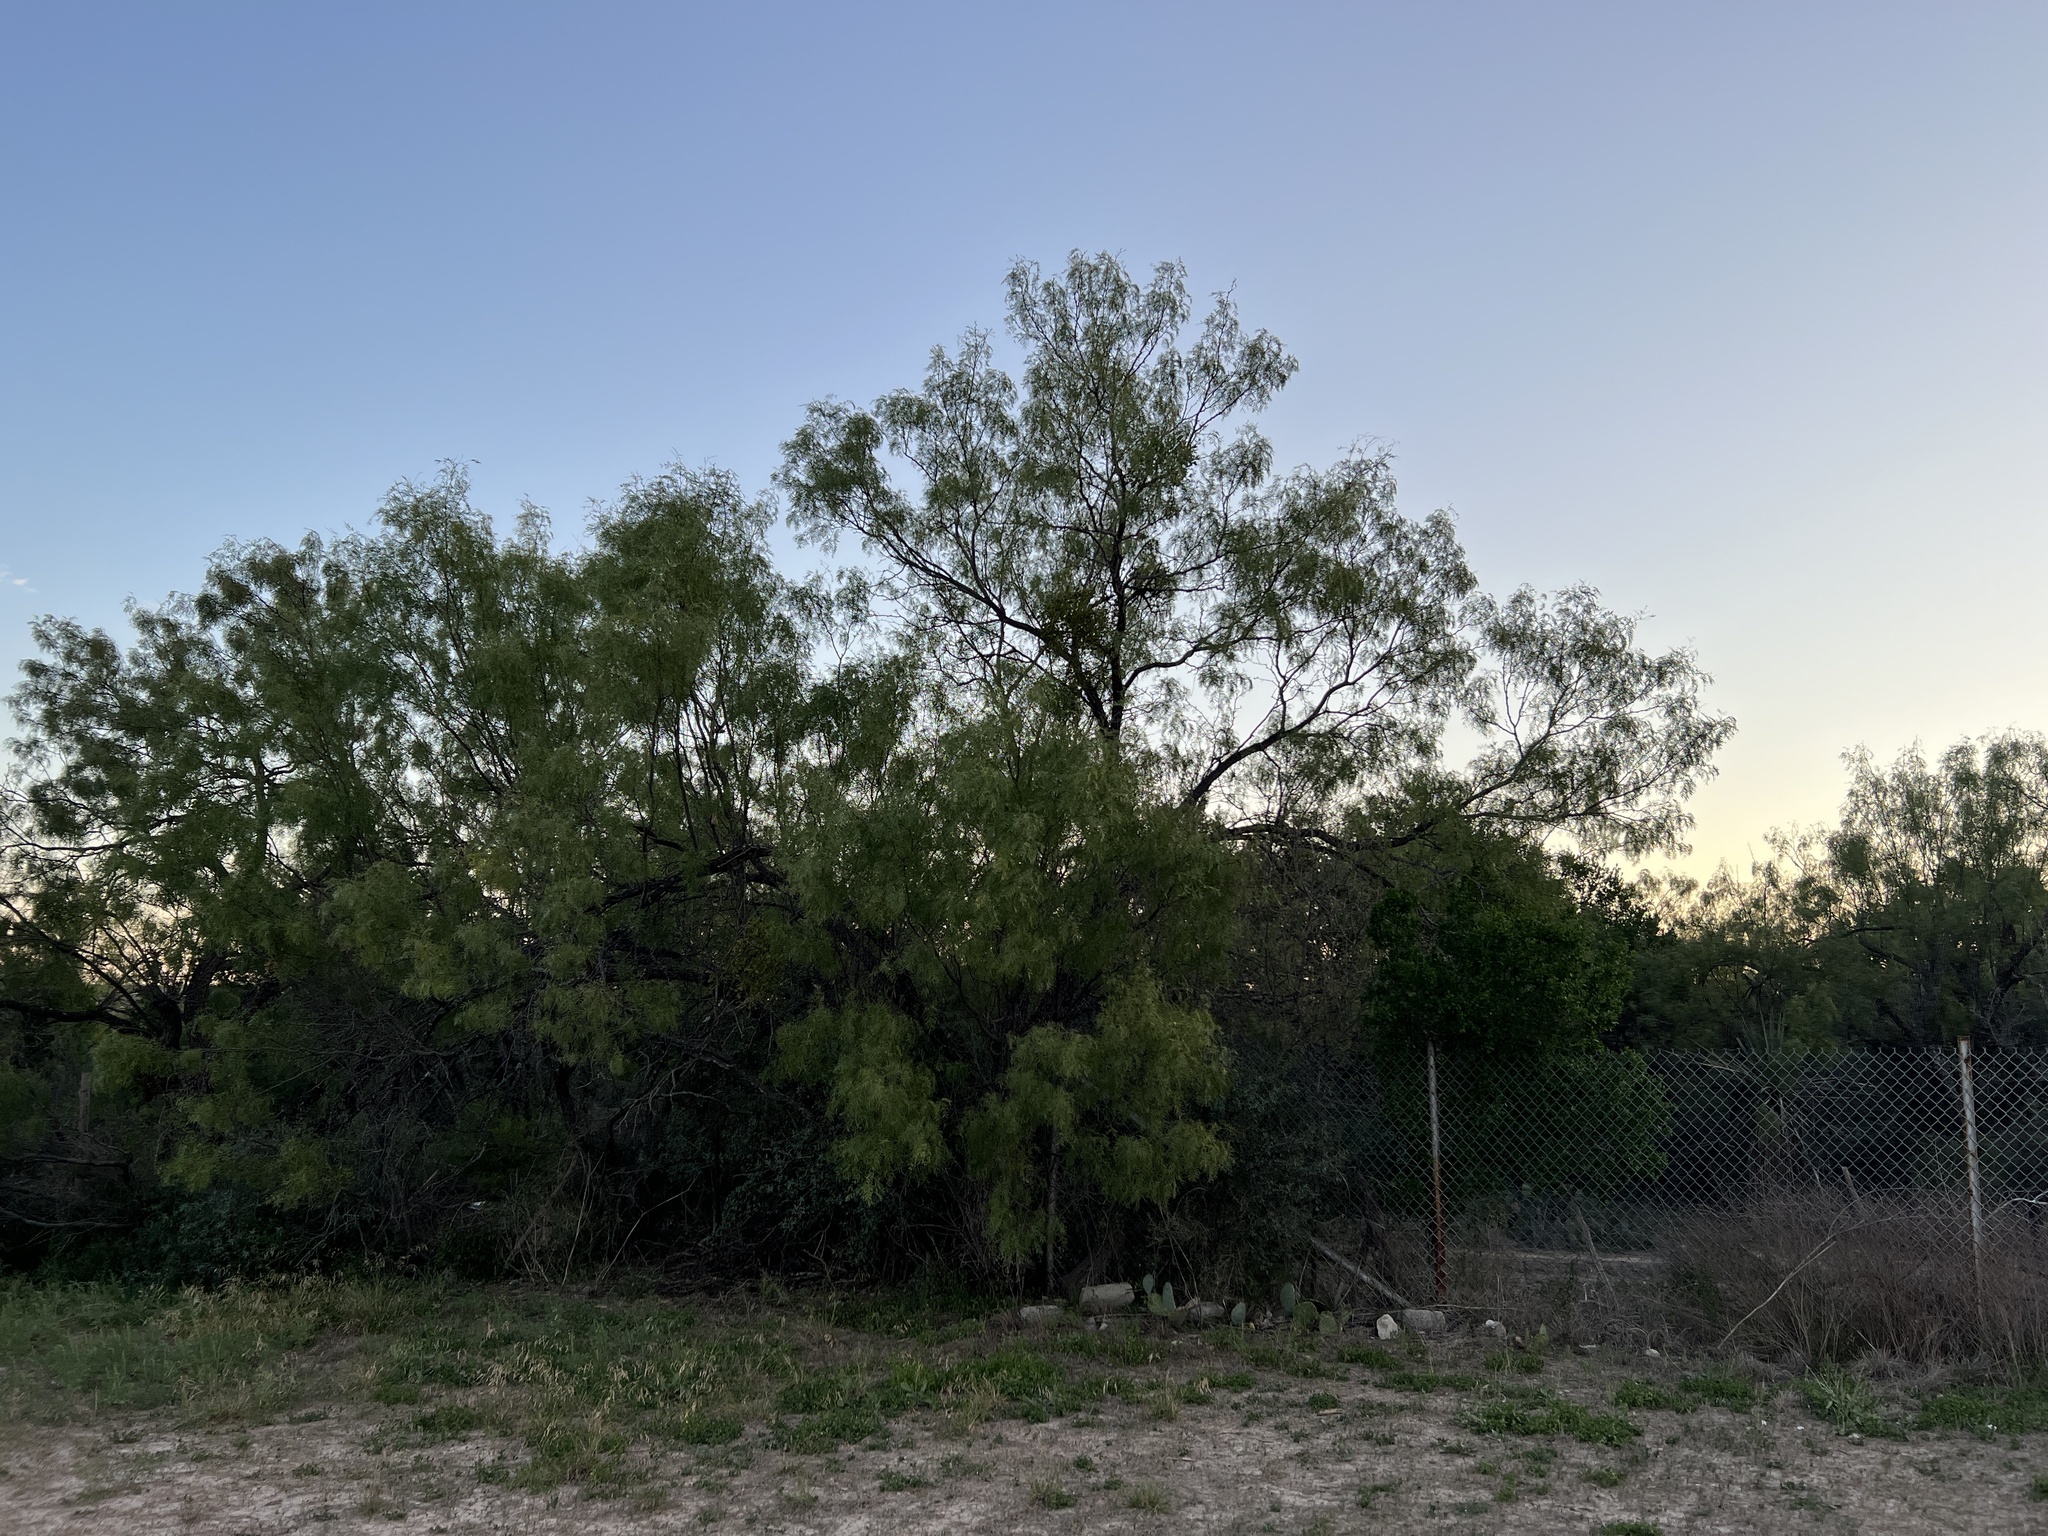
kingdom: Plantae
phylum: Tracheophyta
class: Magnoliopsida
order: Fabales
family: Fabaceae
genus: Prosopis
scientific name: Prosopis glandulosa
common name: Honey mesquite
